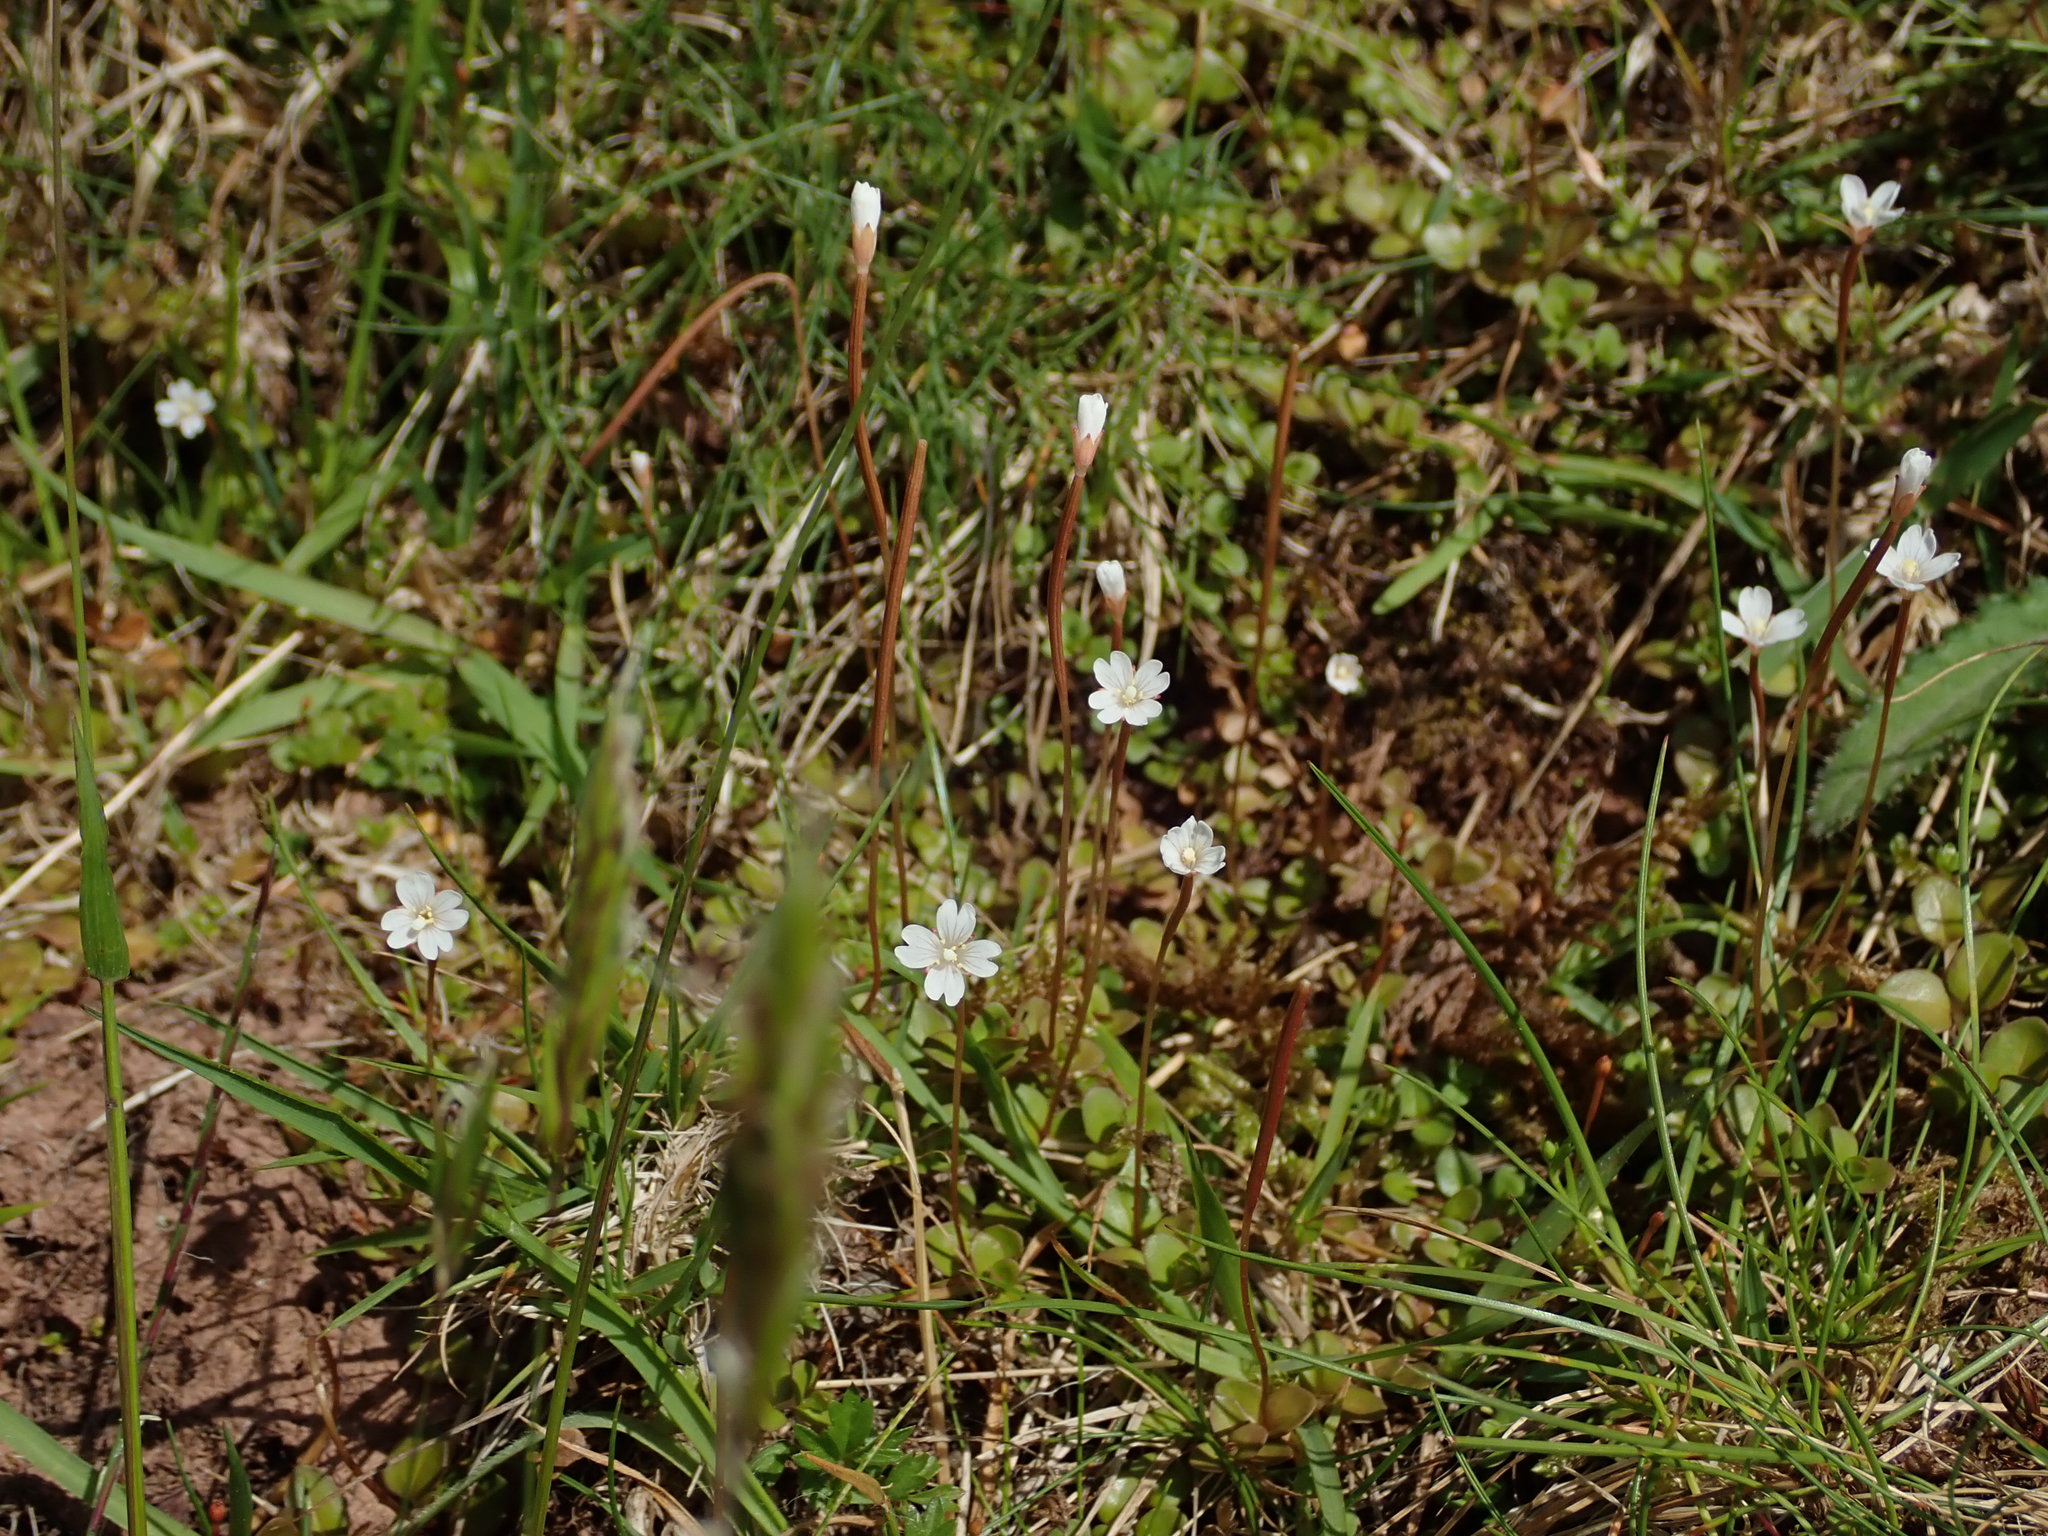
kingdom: Plantae
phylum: Tracheophyta
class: Magnoliopsida
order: Myrtales
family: Onagraceae
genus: Epilobium
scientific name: Epilobium brunnescens
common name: New zealand willowherb
